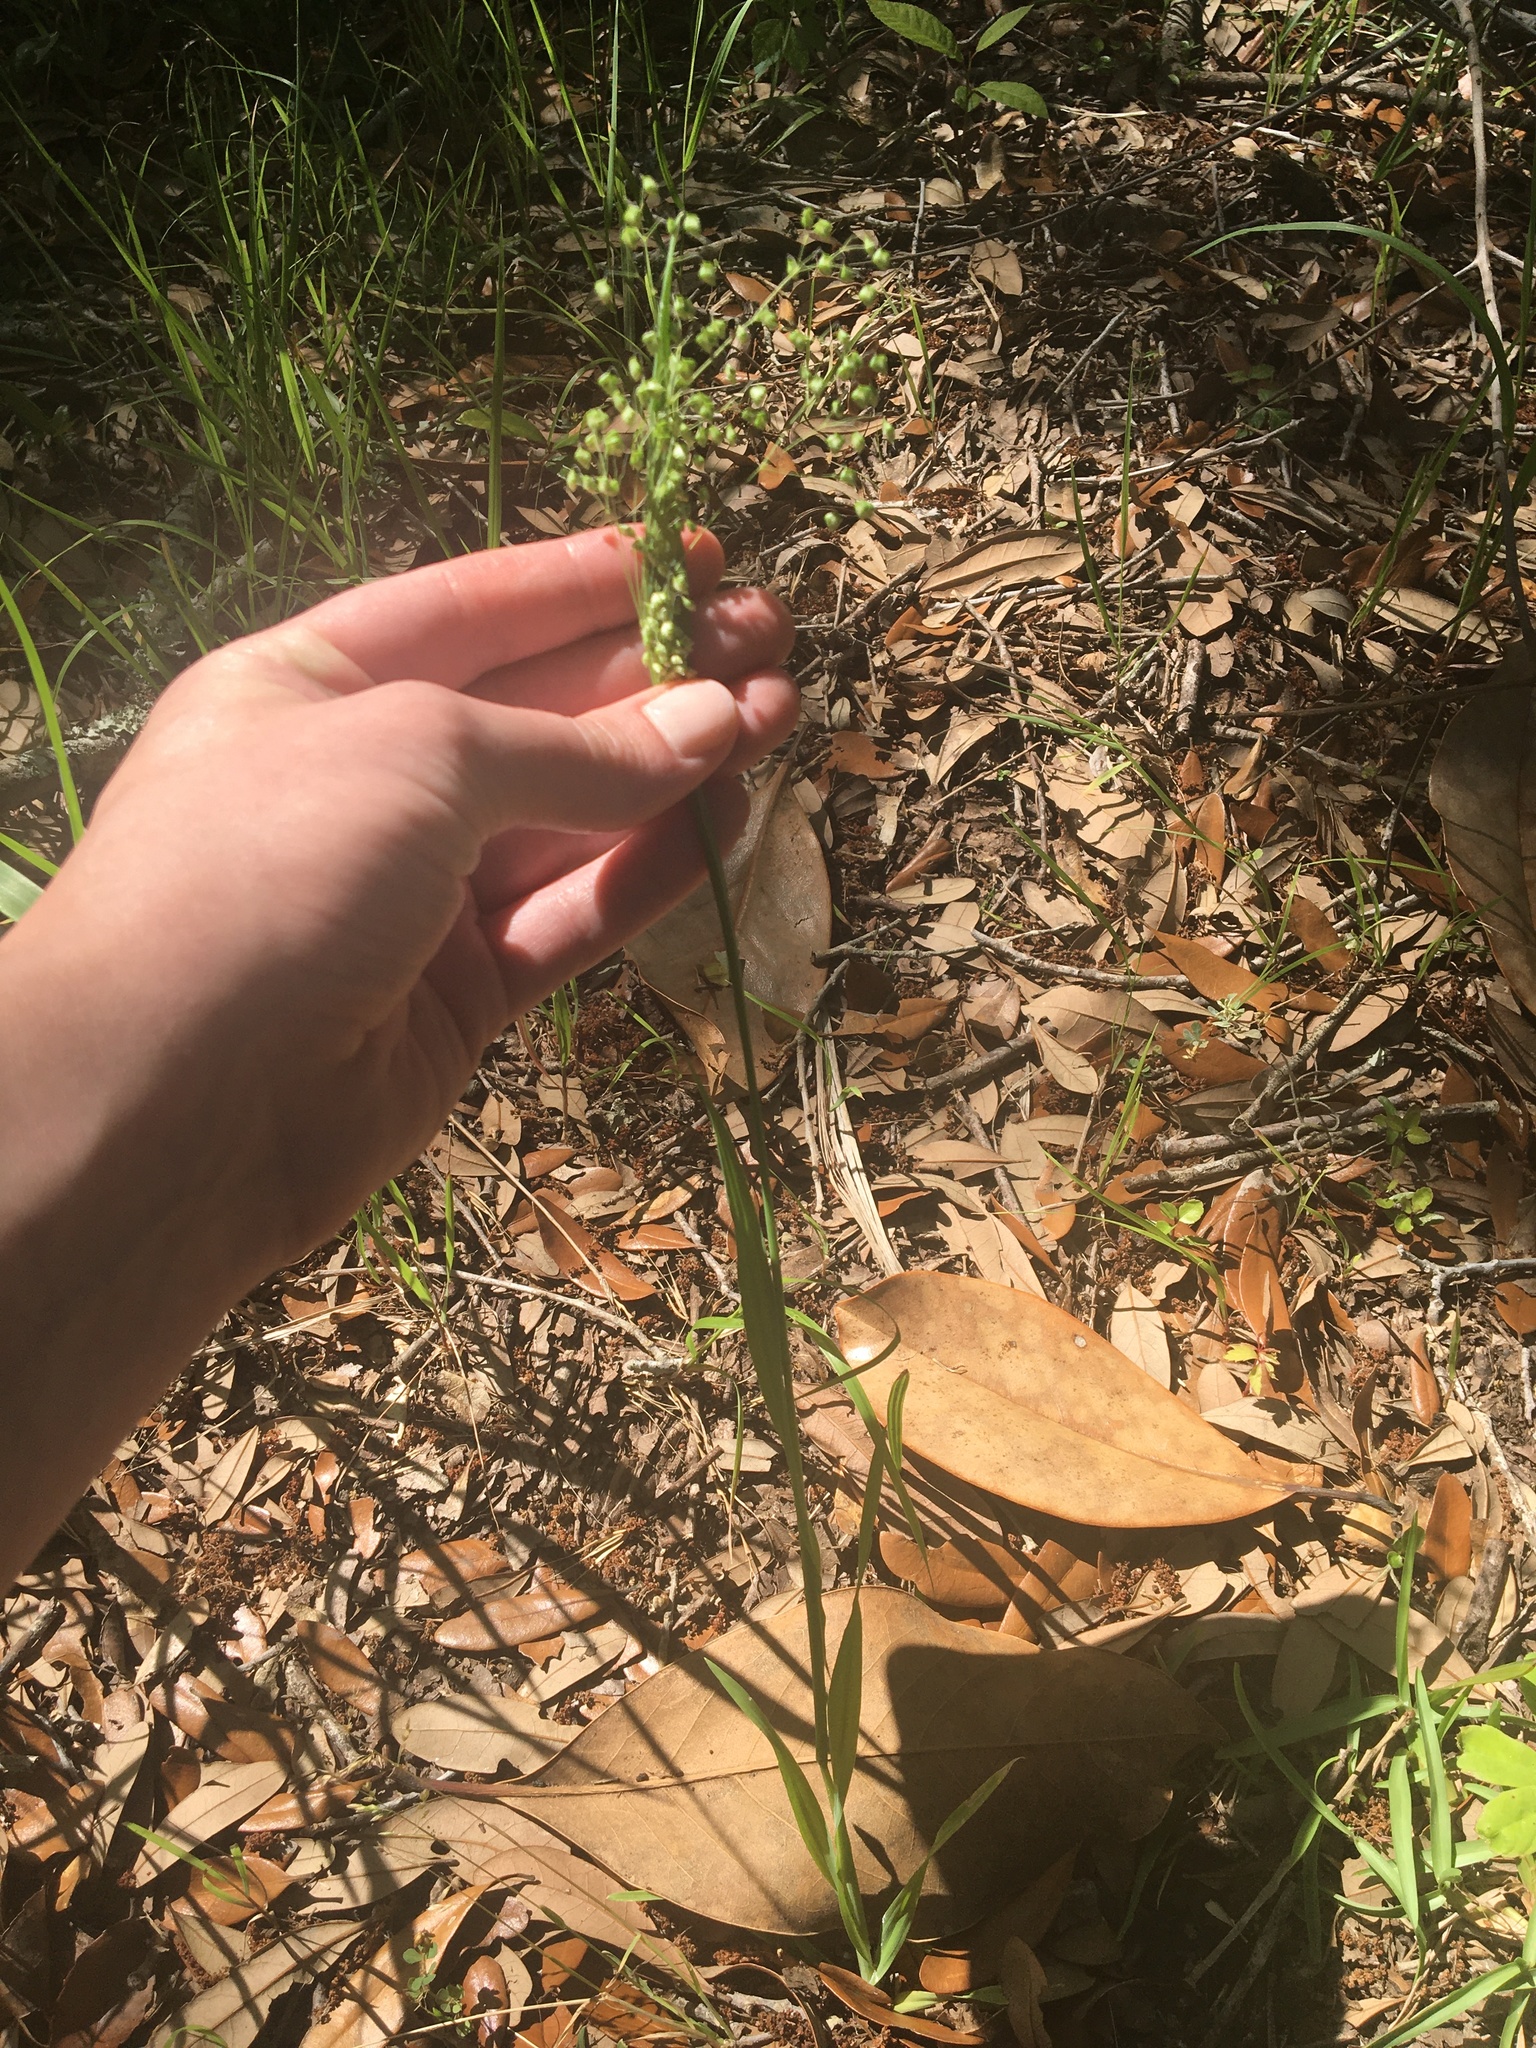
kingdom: Plantae
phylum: Tracheophyta
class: Liliopsida
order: Poales
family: Poaceae
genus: Briza
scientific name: Briza minor
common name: Lesser quaking-grass
